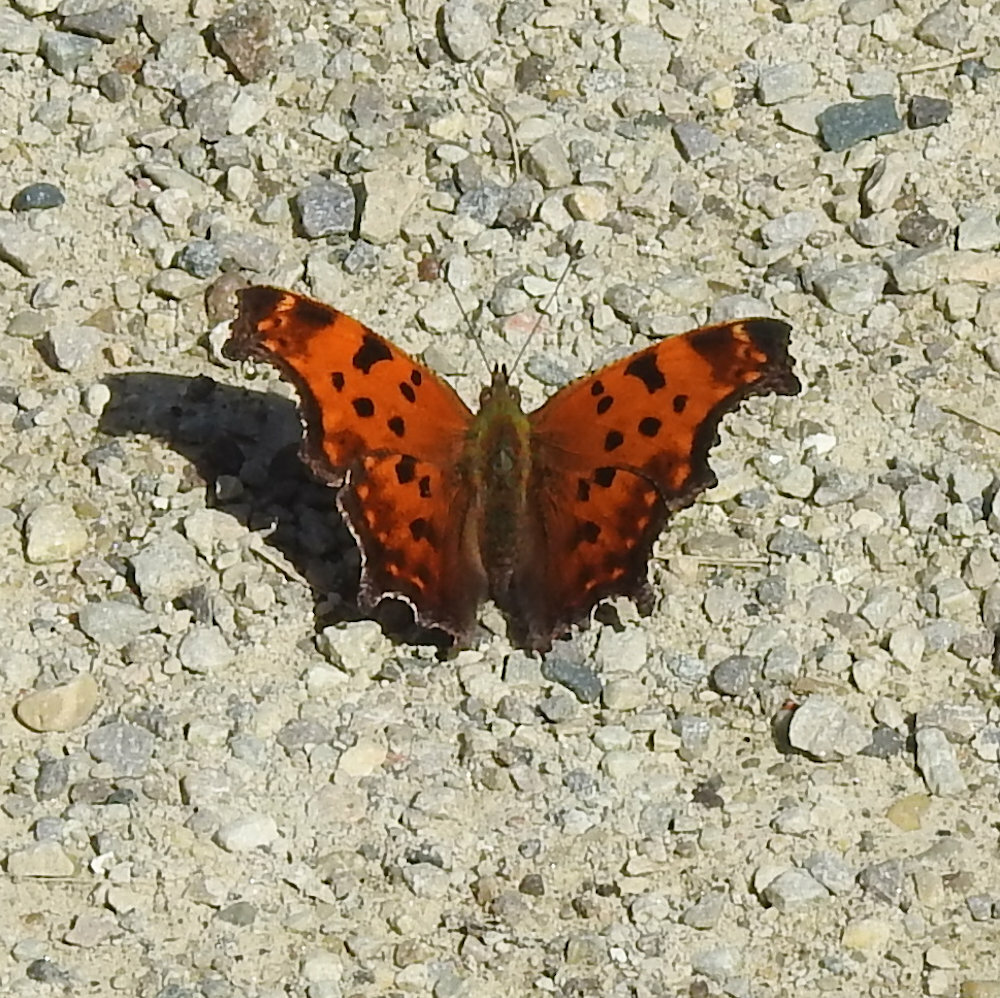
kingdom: Animalia
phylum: Arthropoda
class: Insecta
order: Lepidoptera
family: Nymphalidae
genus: Polygonia
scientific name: Polygonia comma
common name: Eastern comma
